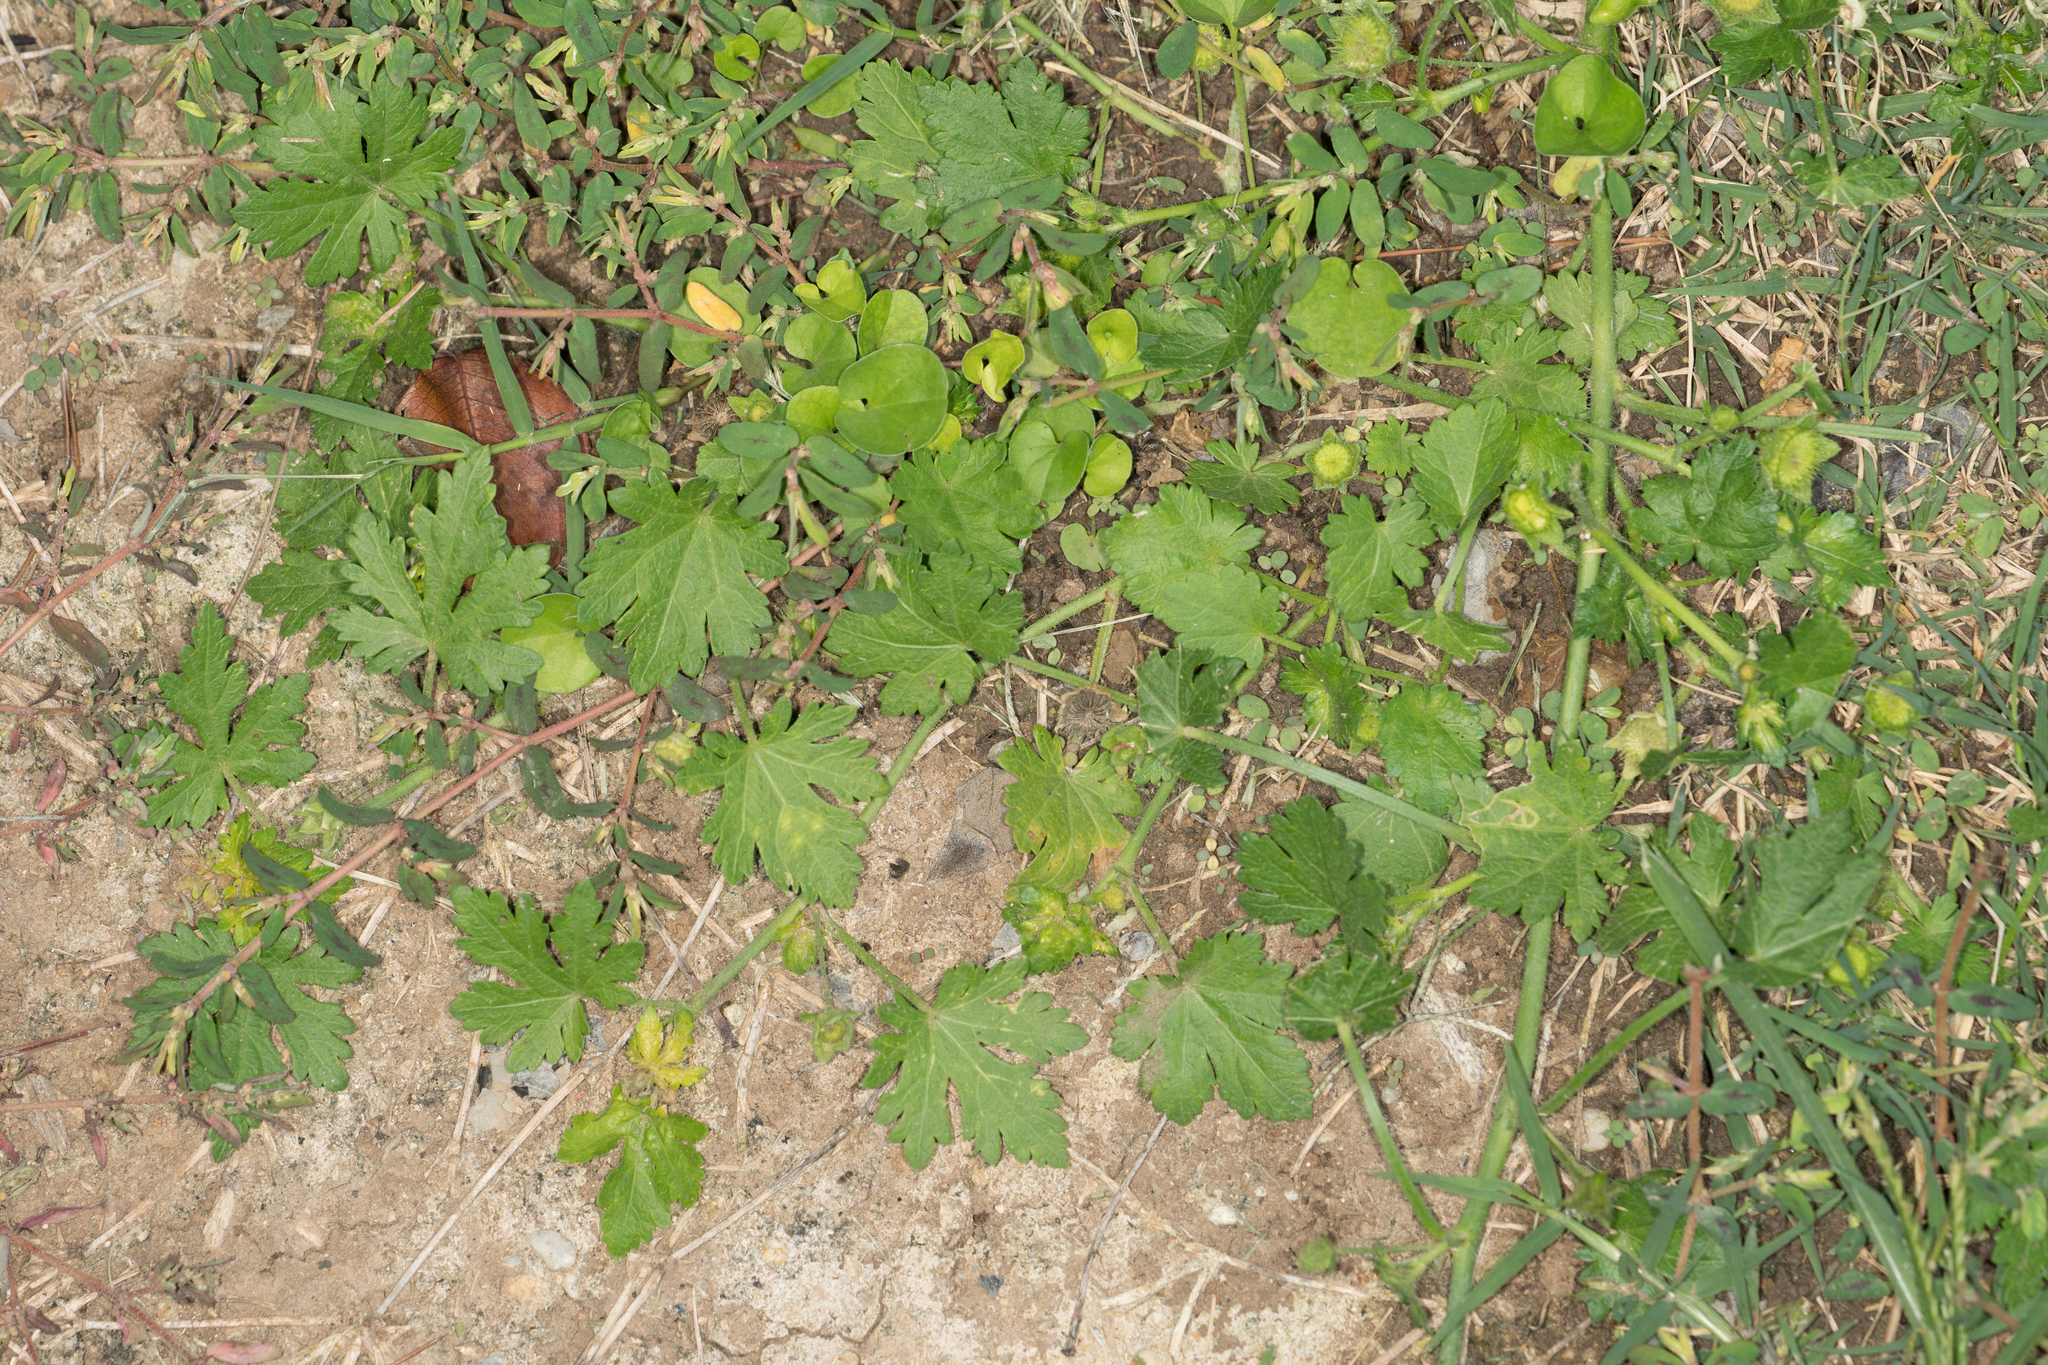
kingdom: Plantae
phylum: Tracheophyta
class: Magnoliopsida
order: Malvales
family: Malvaceae
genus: Modiola
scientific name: Modiola caroliniana
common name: Carolina bristlemallow
